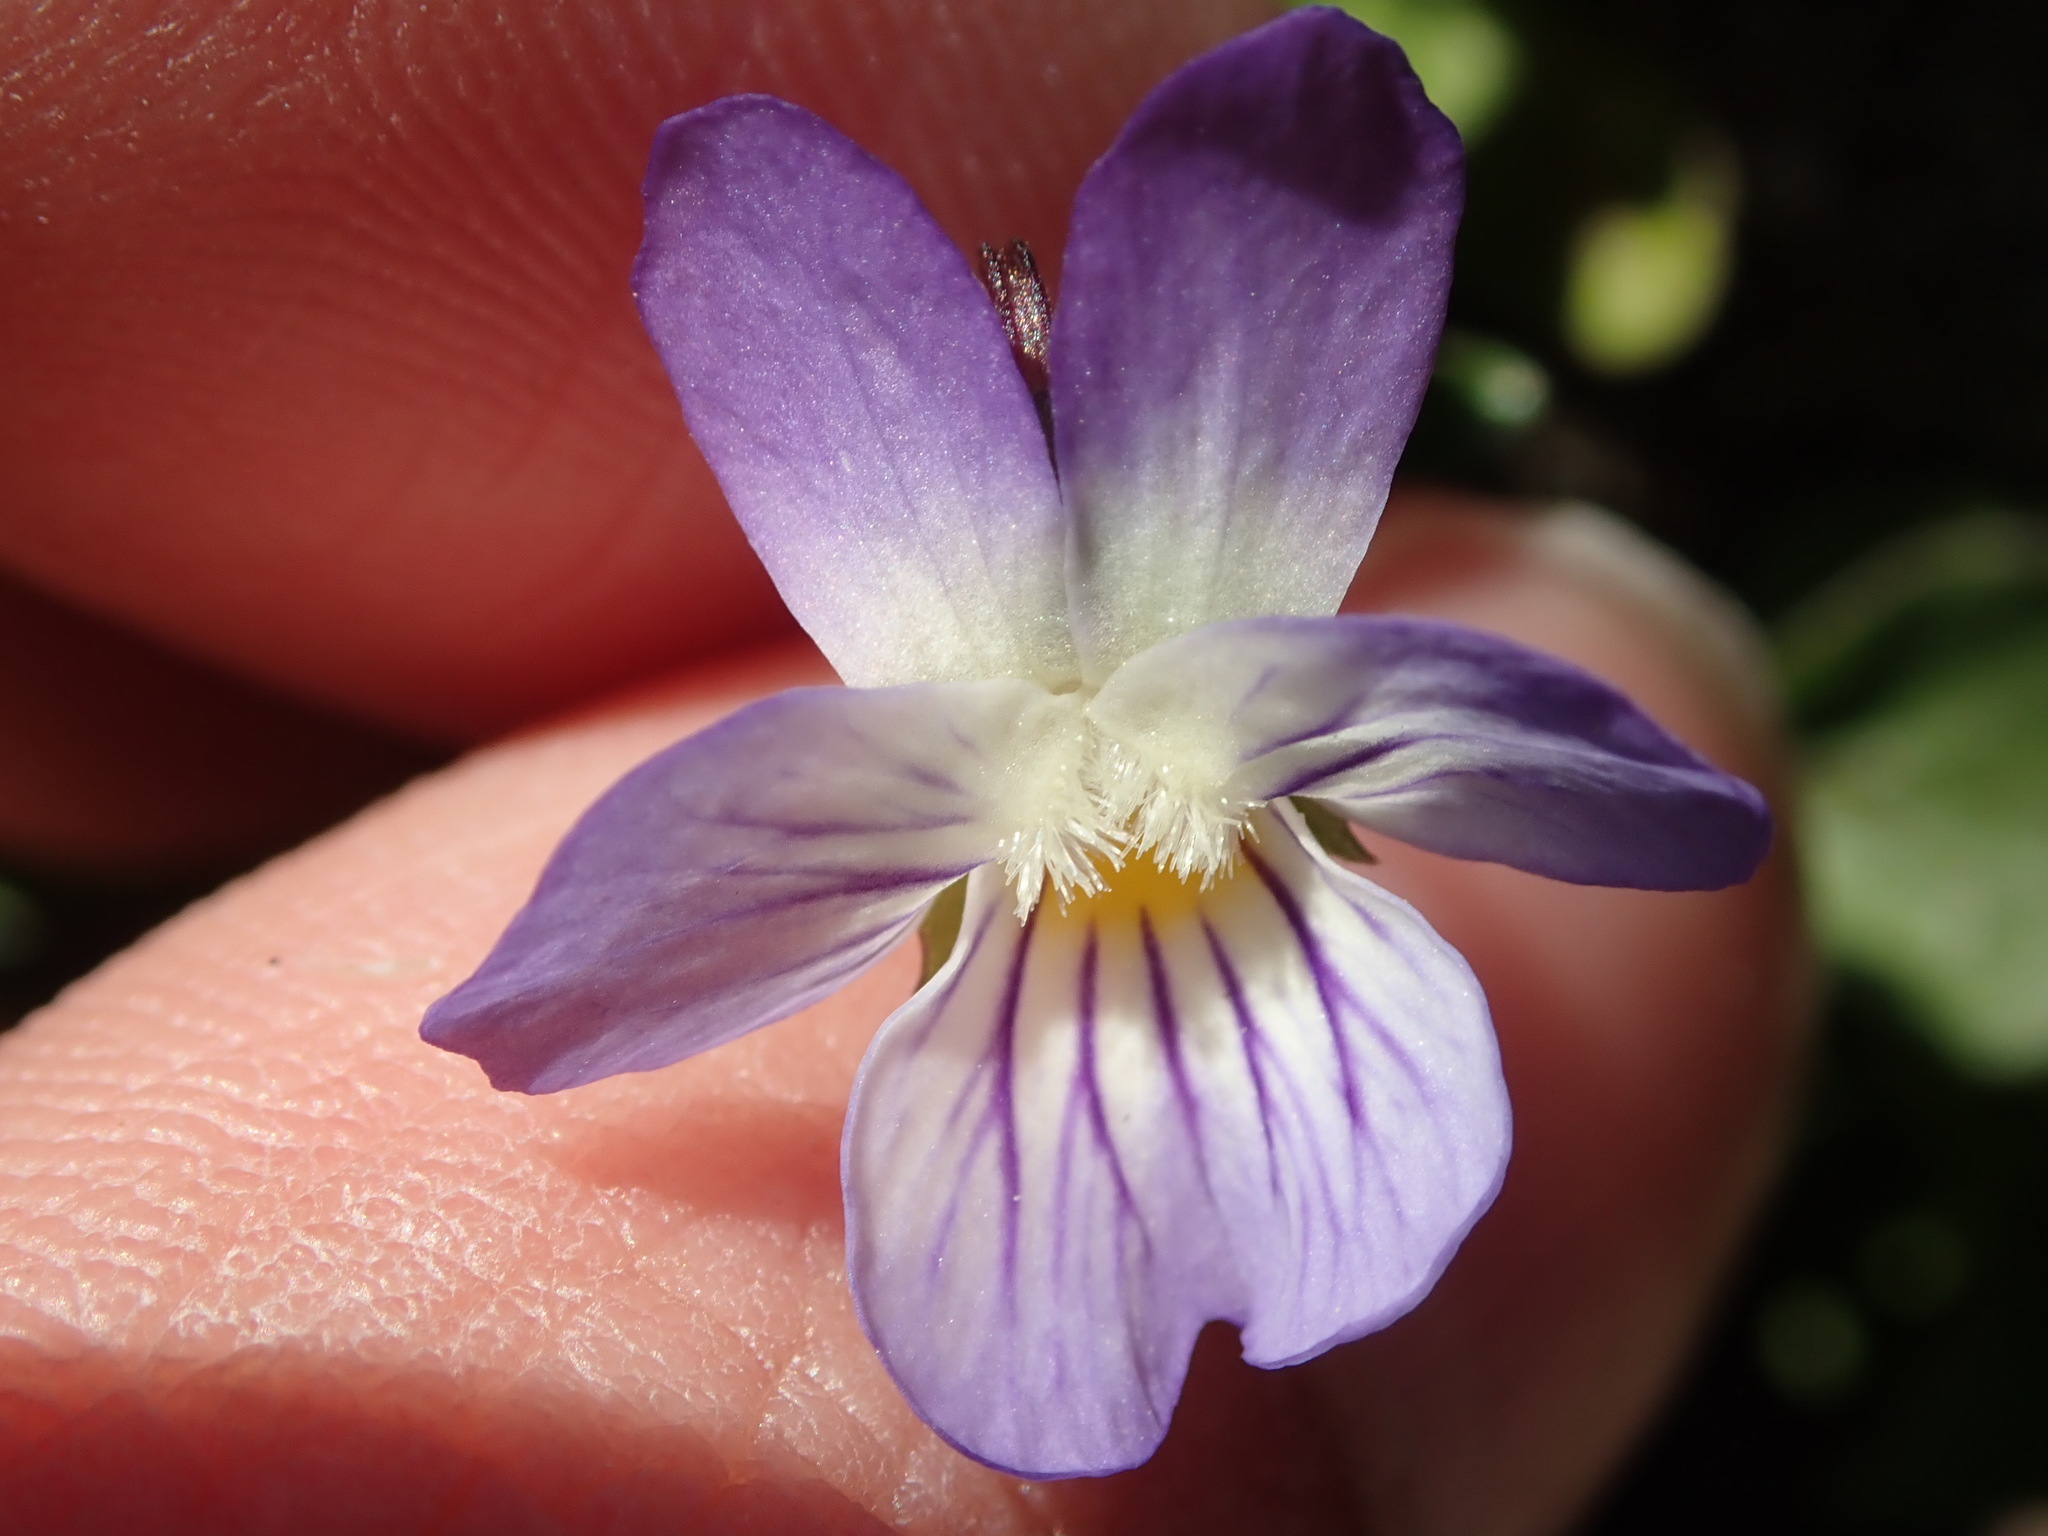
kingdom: Plantae
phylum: Tracheophyta
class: Magnoliopsida
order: Malpighiales
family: Violaceae
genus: Viola
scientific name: Viola rafinesquei
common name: American field pansy
